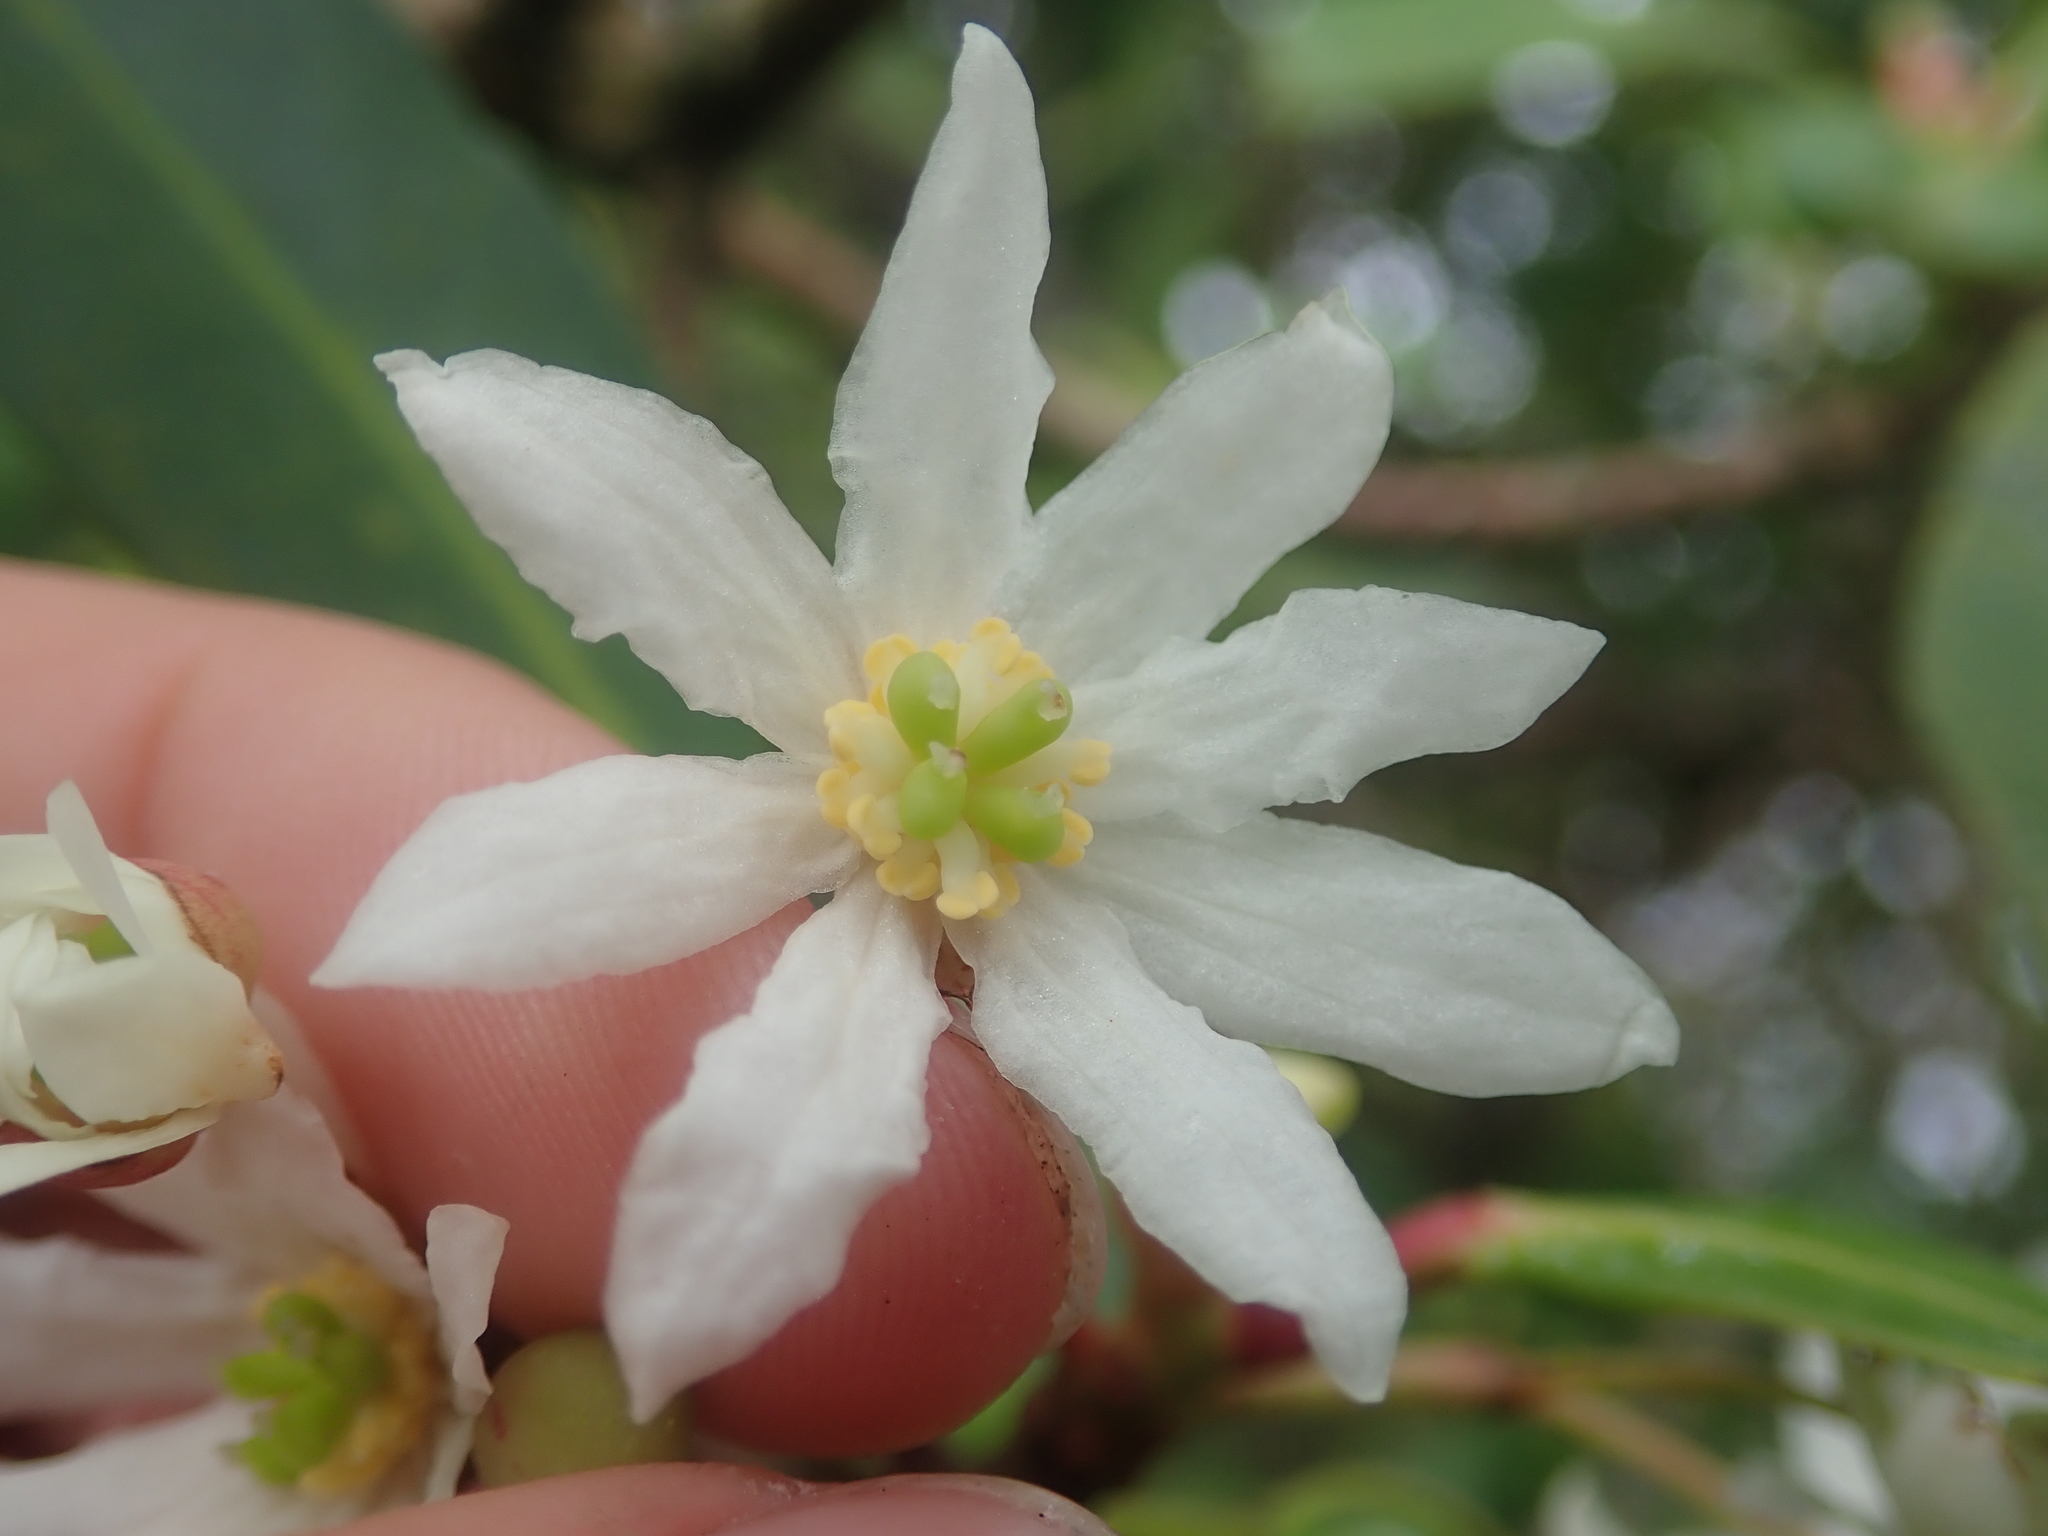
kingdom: Plantae
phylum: Tracheophyta
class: Magnoliopsida
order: Canellales
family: Winteraceae
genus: Drimys
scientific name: Drimys winteri
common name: Winter's-bark
